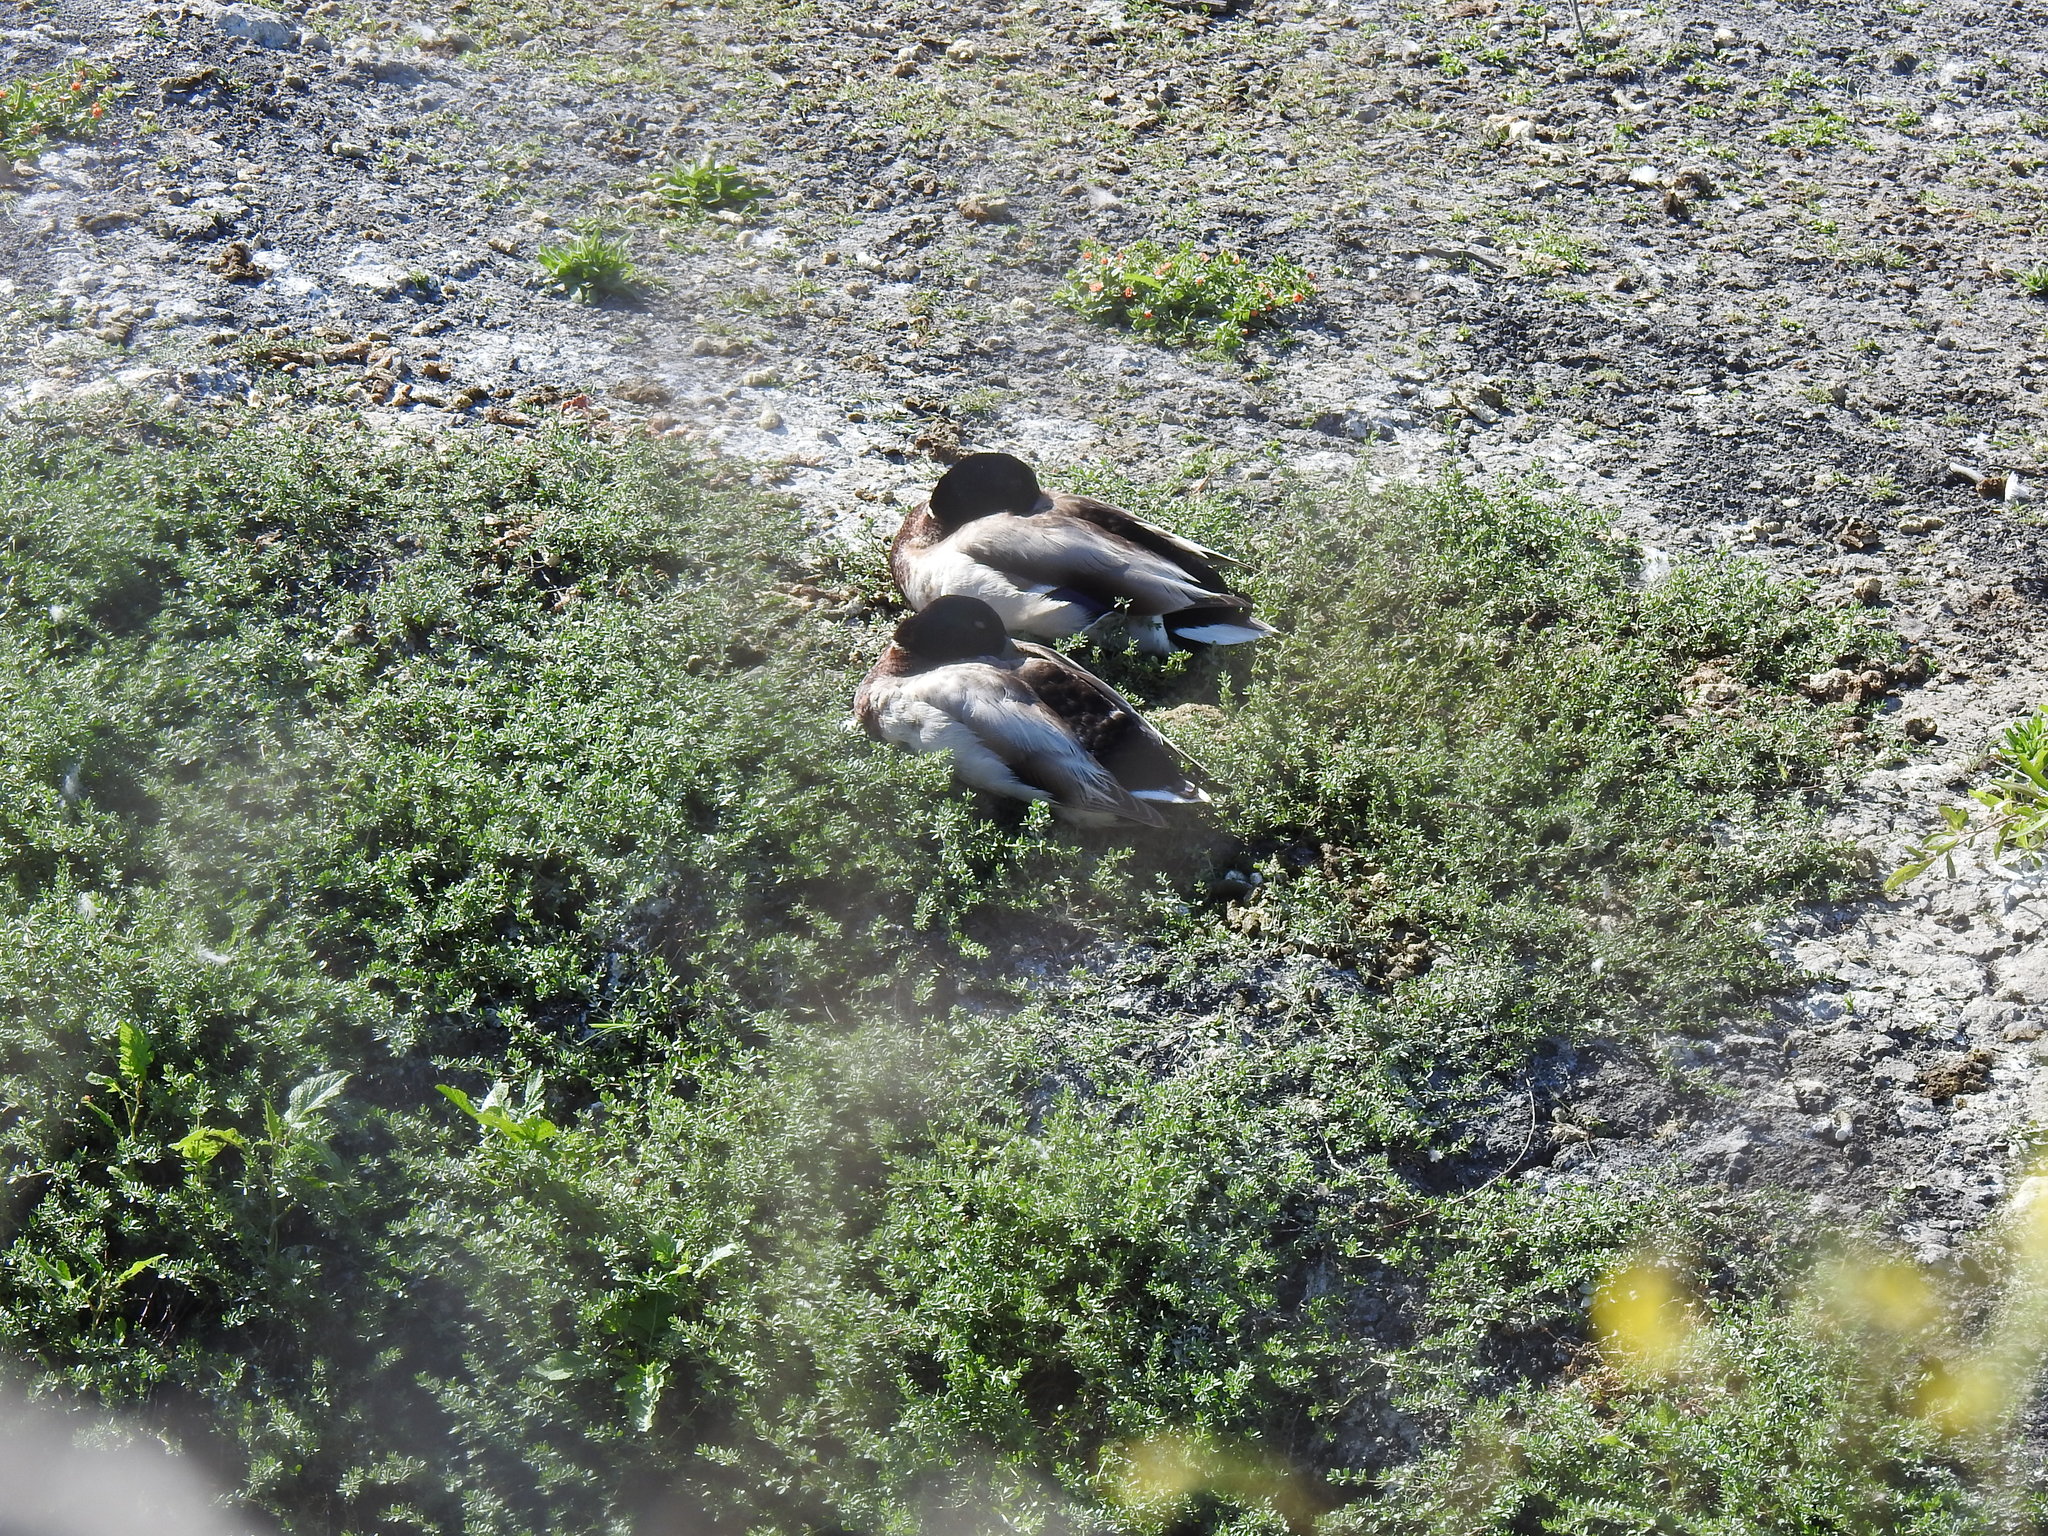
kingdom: Animalia
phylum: Chordata
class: Aves
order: Anseriformes
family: Anatidae
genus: Anas
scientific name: Anas platyrhynchos
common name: Mallard
